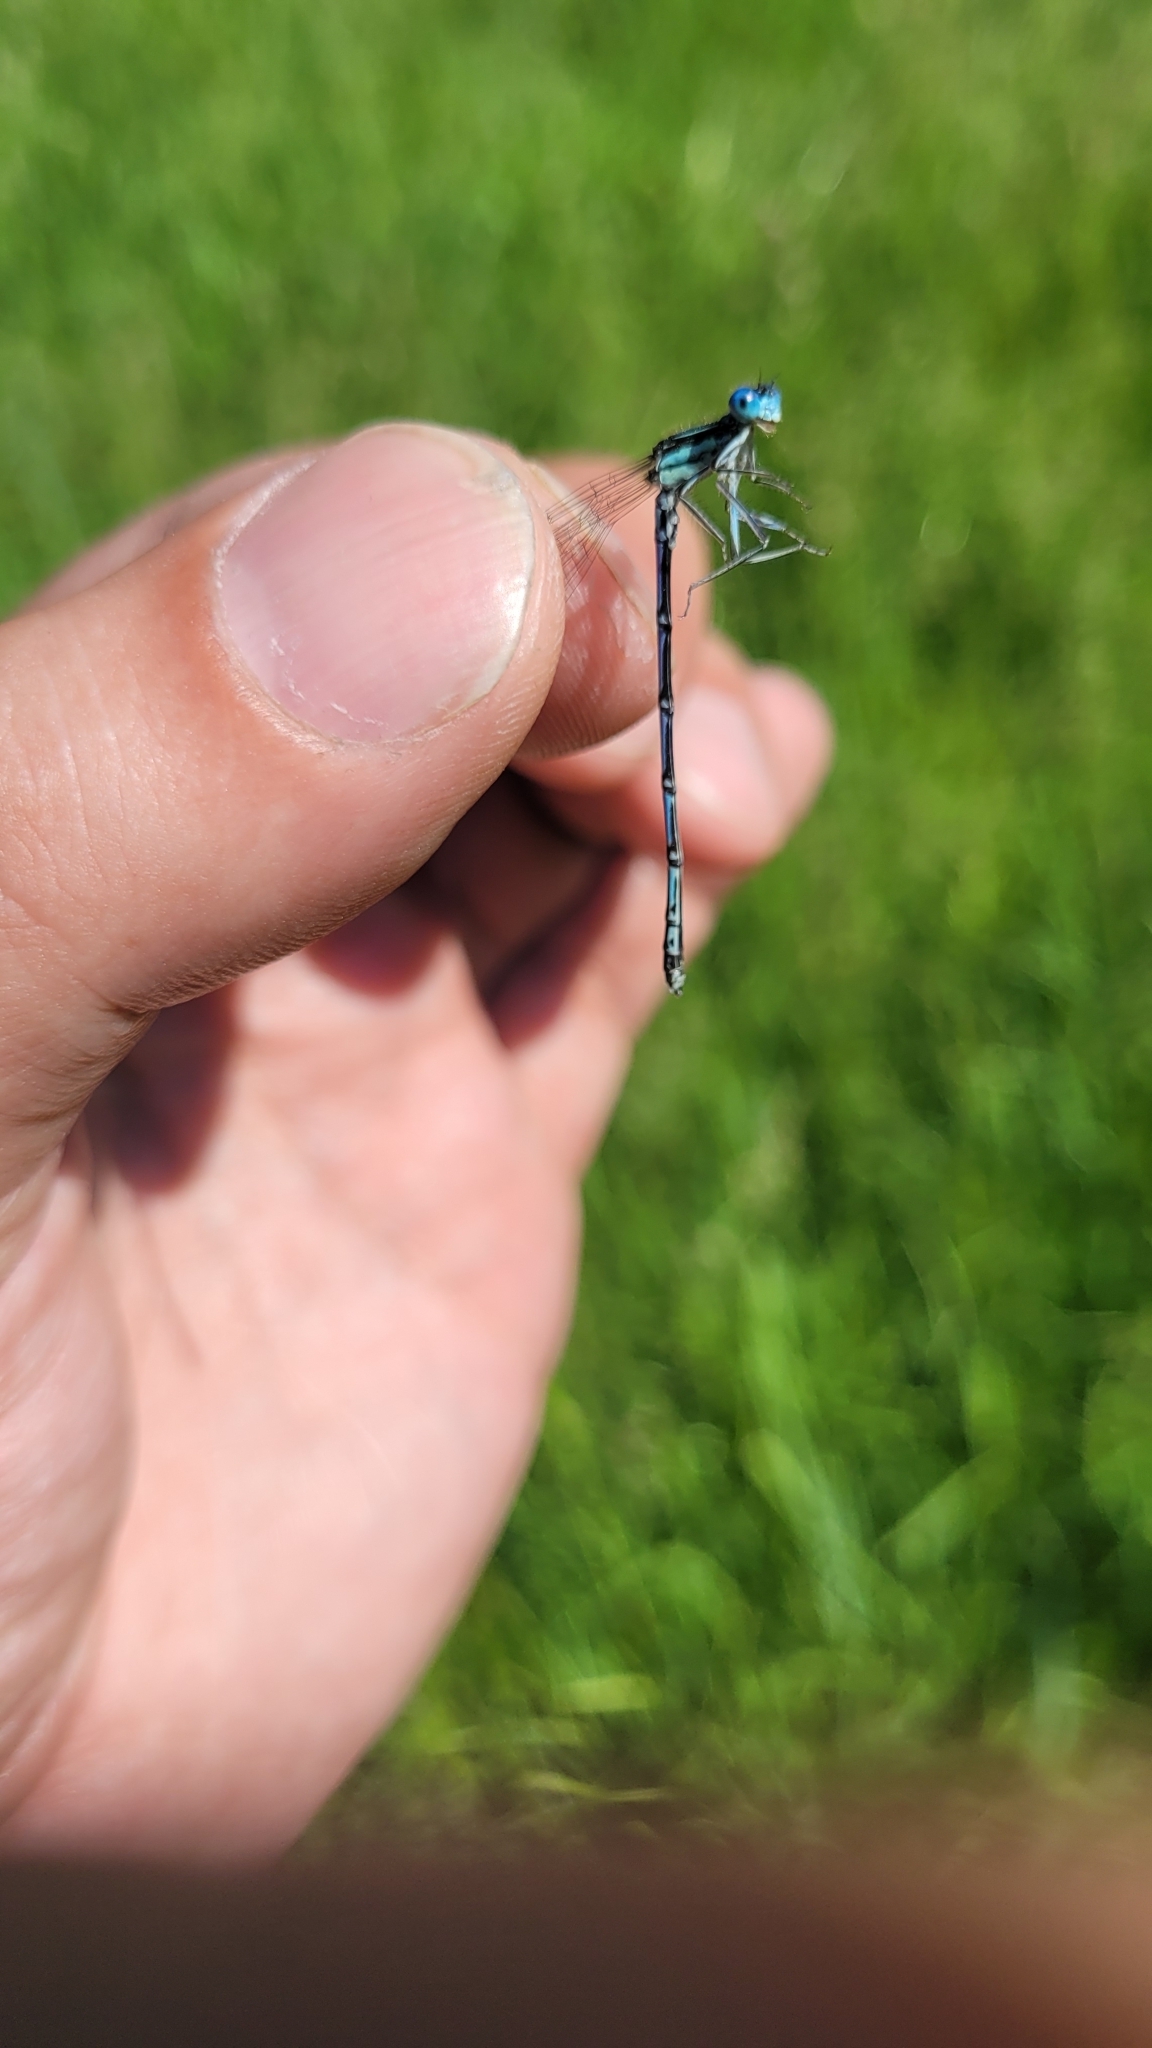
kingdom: Animalia
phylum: Arthropoda
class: Insecta
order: Odonata
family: Platycnemididae
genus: Platycnemis
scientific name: Platycnemis pennipes
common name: White-legged damselfly
